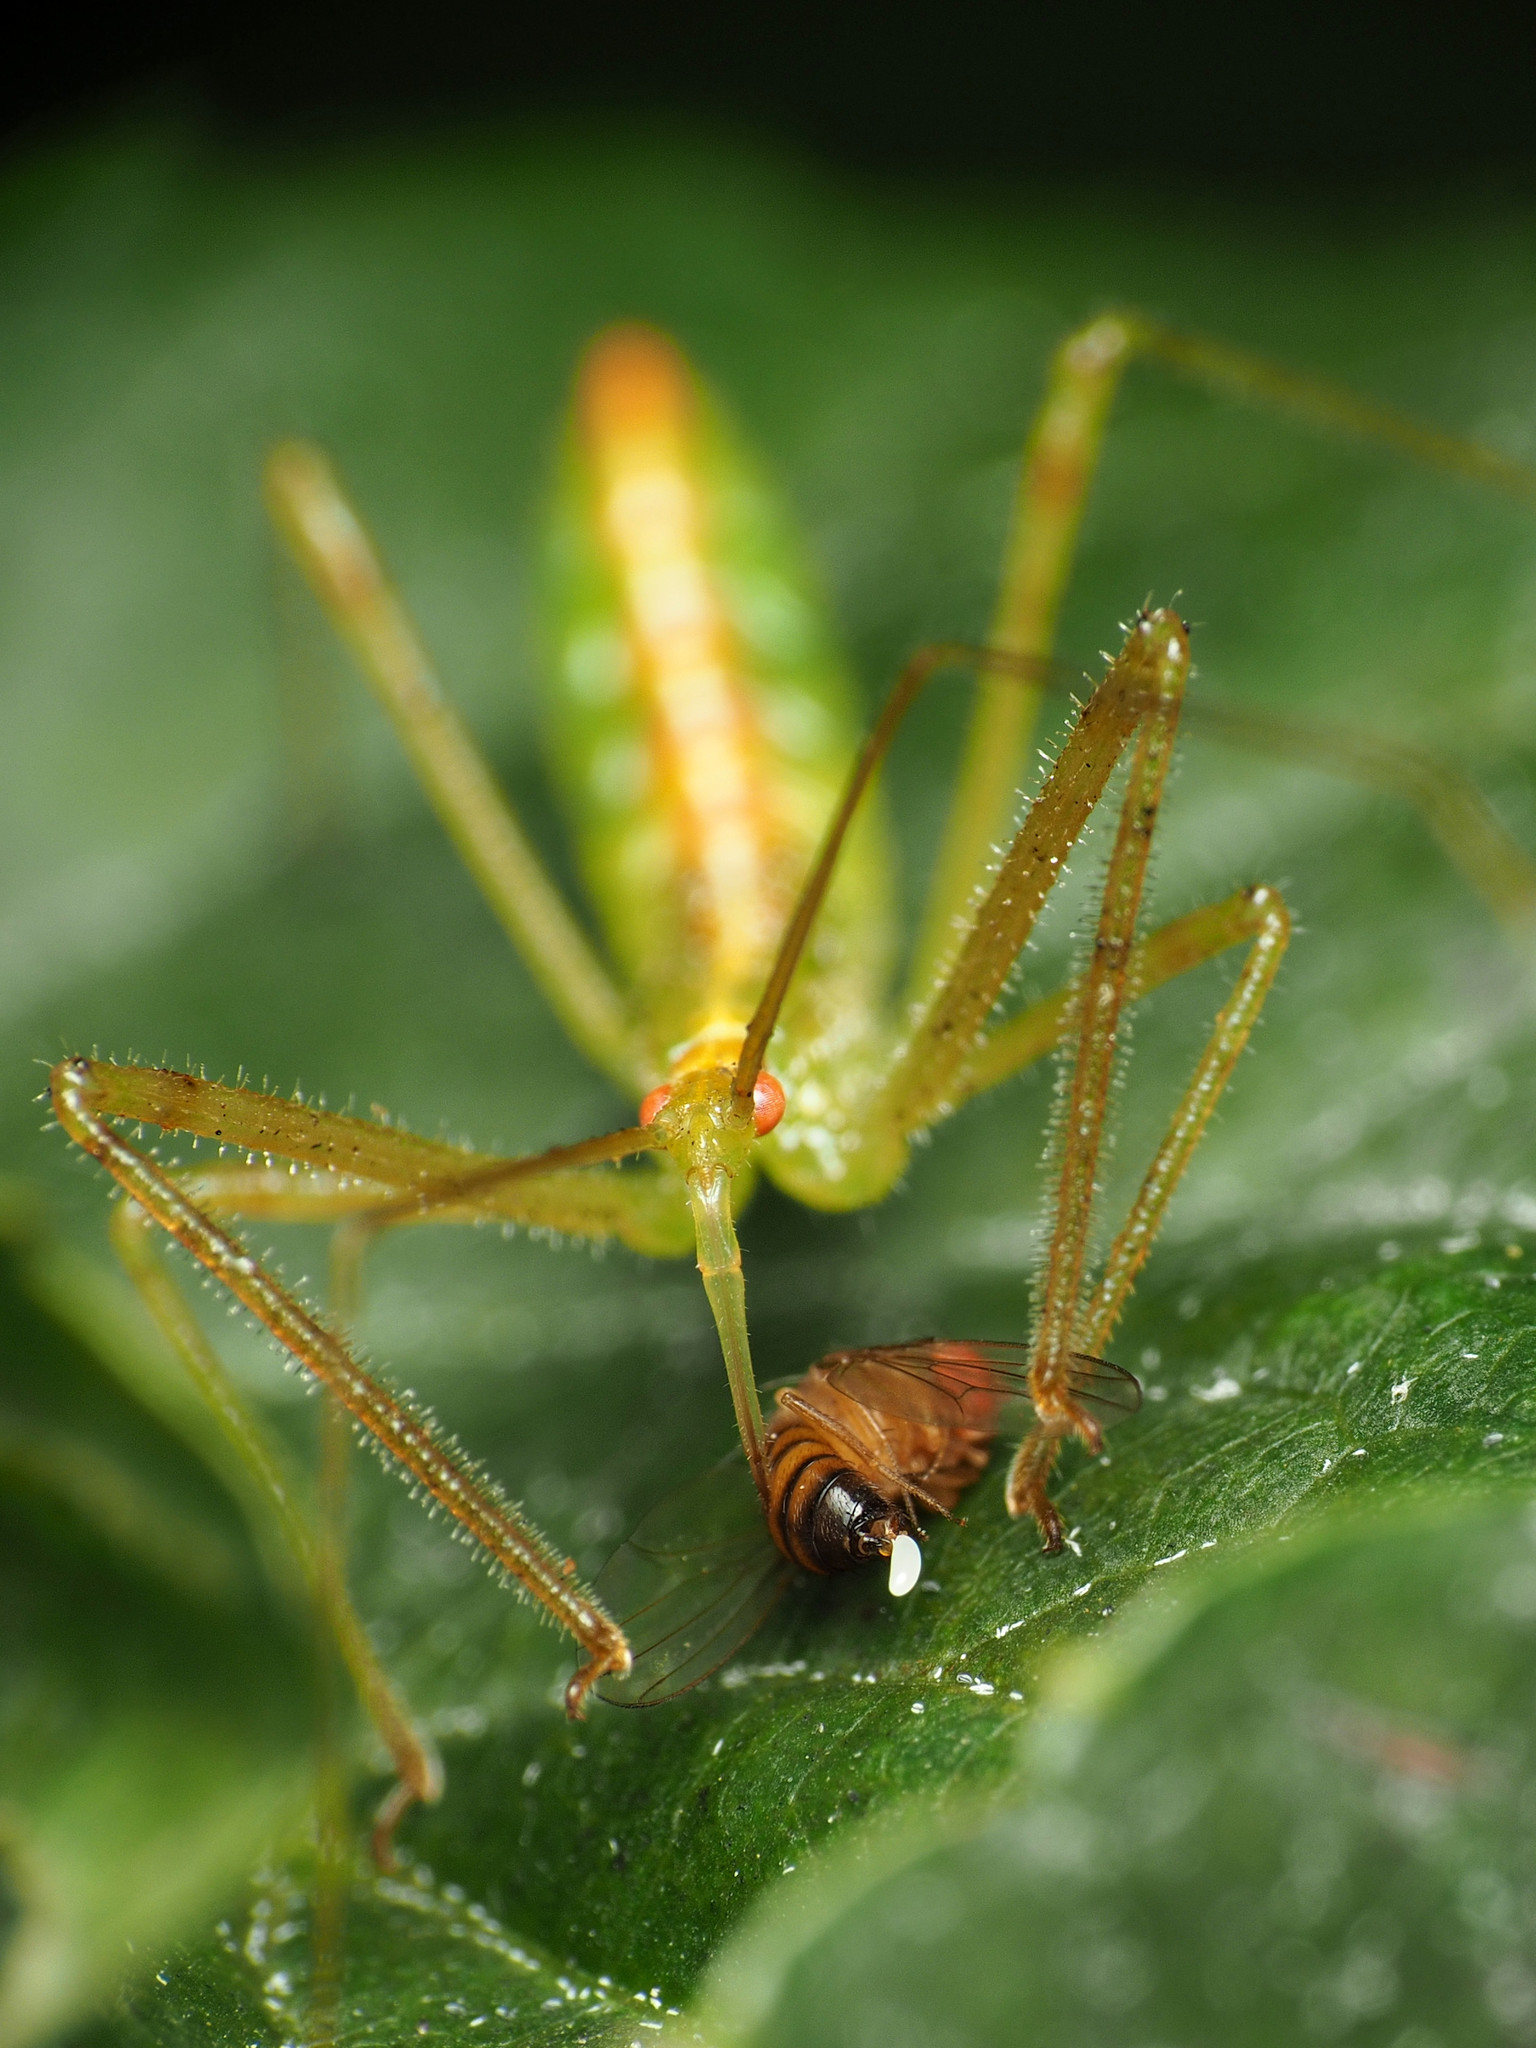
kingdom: Animalia
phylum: Arthropoda
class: Insecta
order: Hemiptera
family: Reduviidae
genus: Zelus
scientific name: Zelus luridus
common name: Pale green assassin bug
